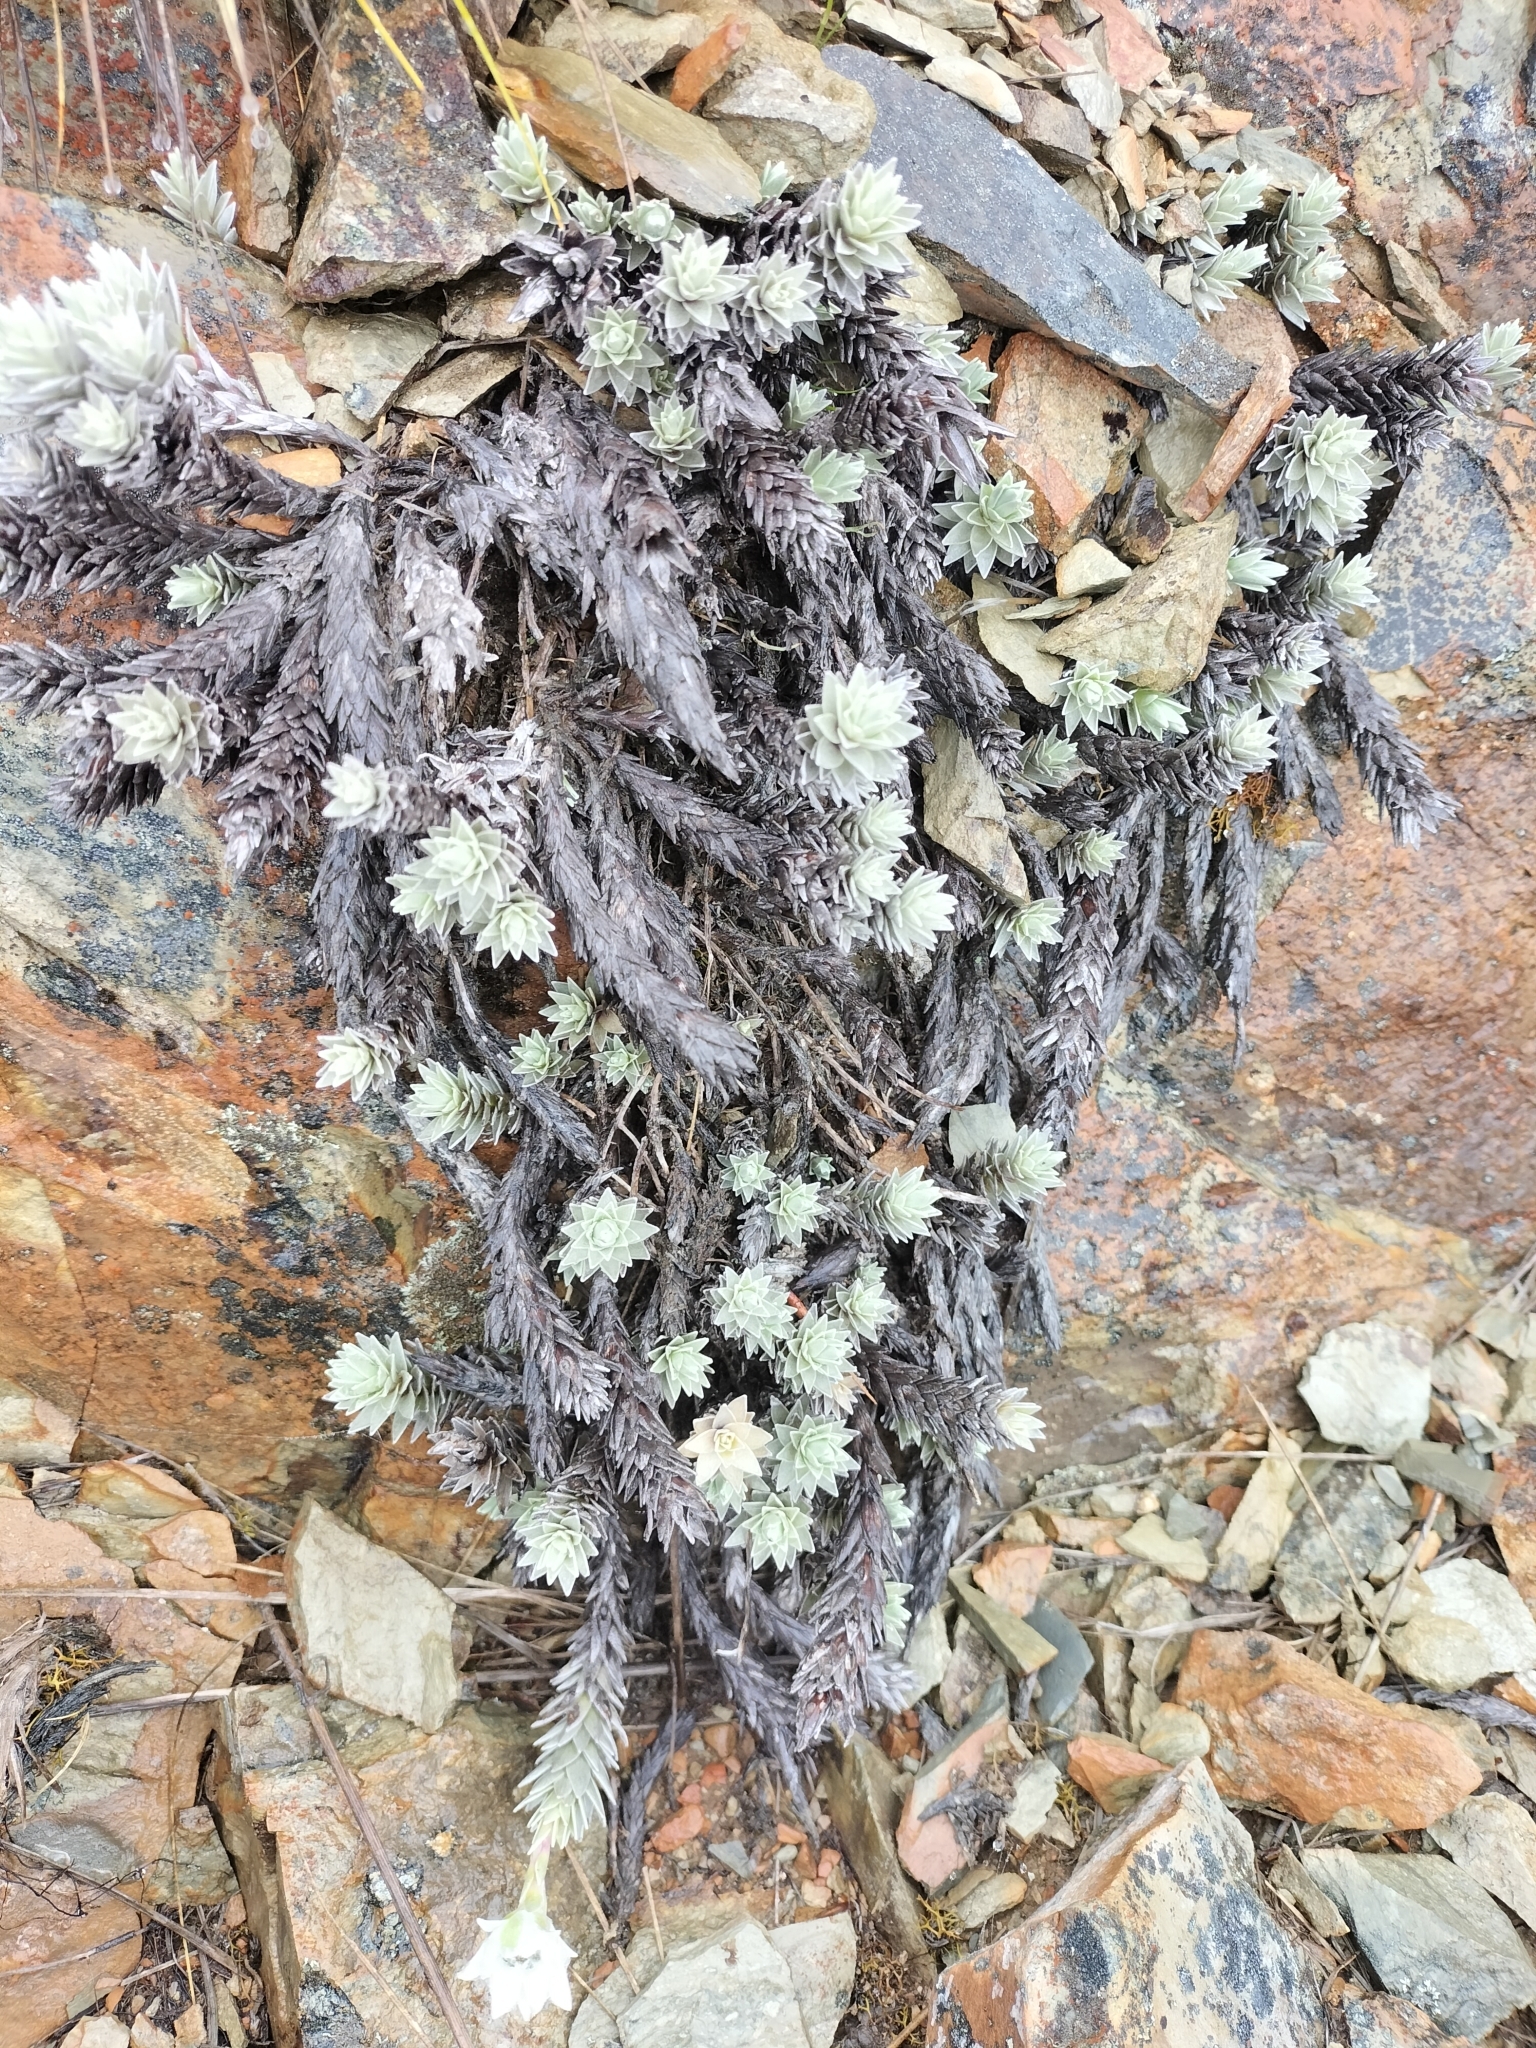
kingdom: Plantae
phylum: Tracheophyta
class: Magnoliopsida
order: Asterales
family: Asteraceae
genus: Leucogenes
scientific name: Leucogenes leontopodium
